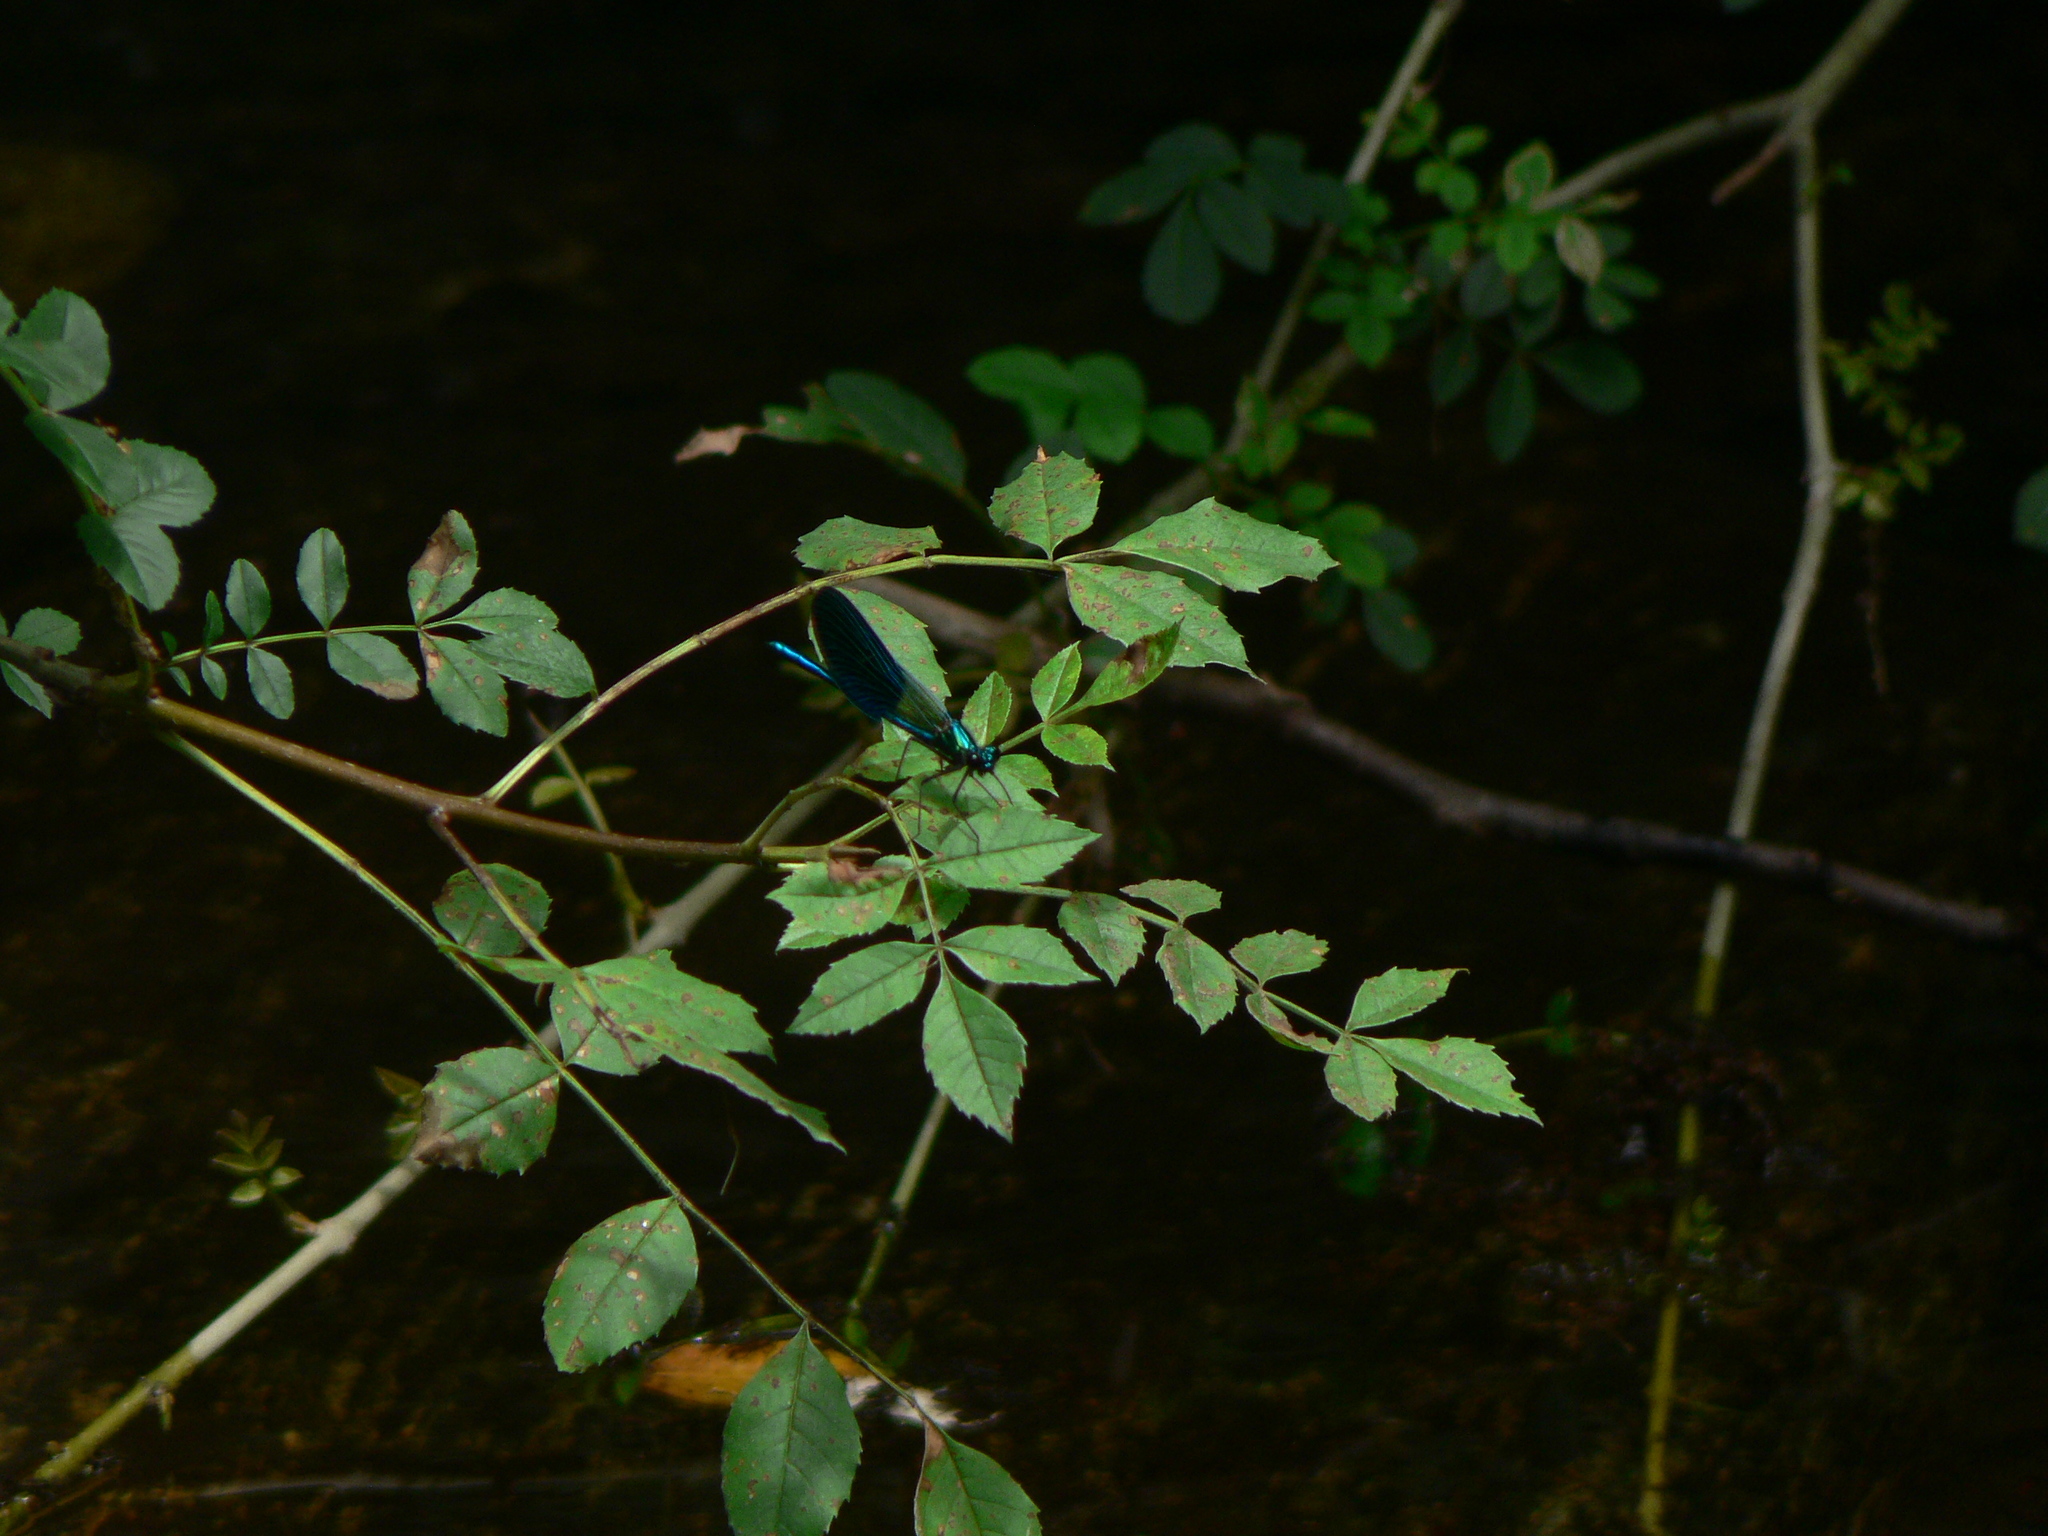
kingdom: Animalia
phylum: Arthropoda
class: Insecta
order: Odonata
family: Calopterygidae
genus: Calopteryx
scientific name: Calopteryx xanthostoma
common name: Western demoiselle
